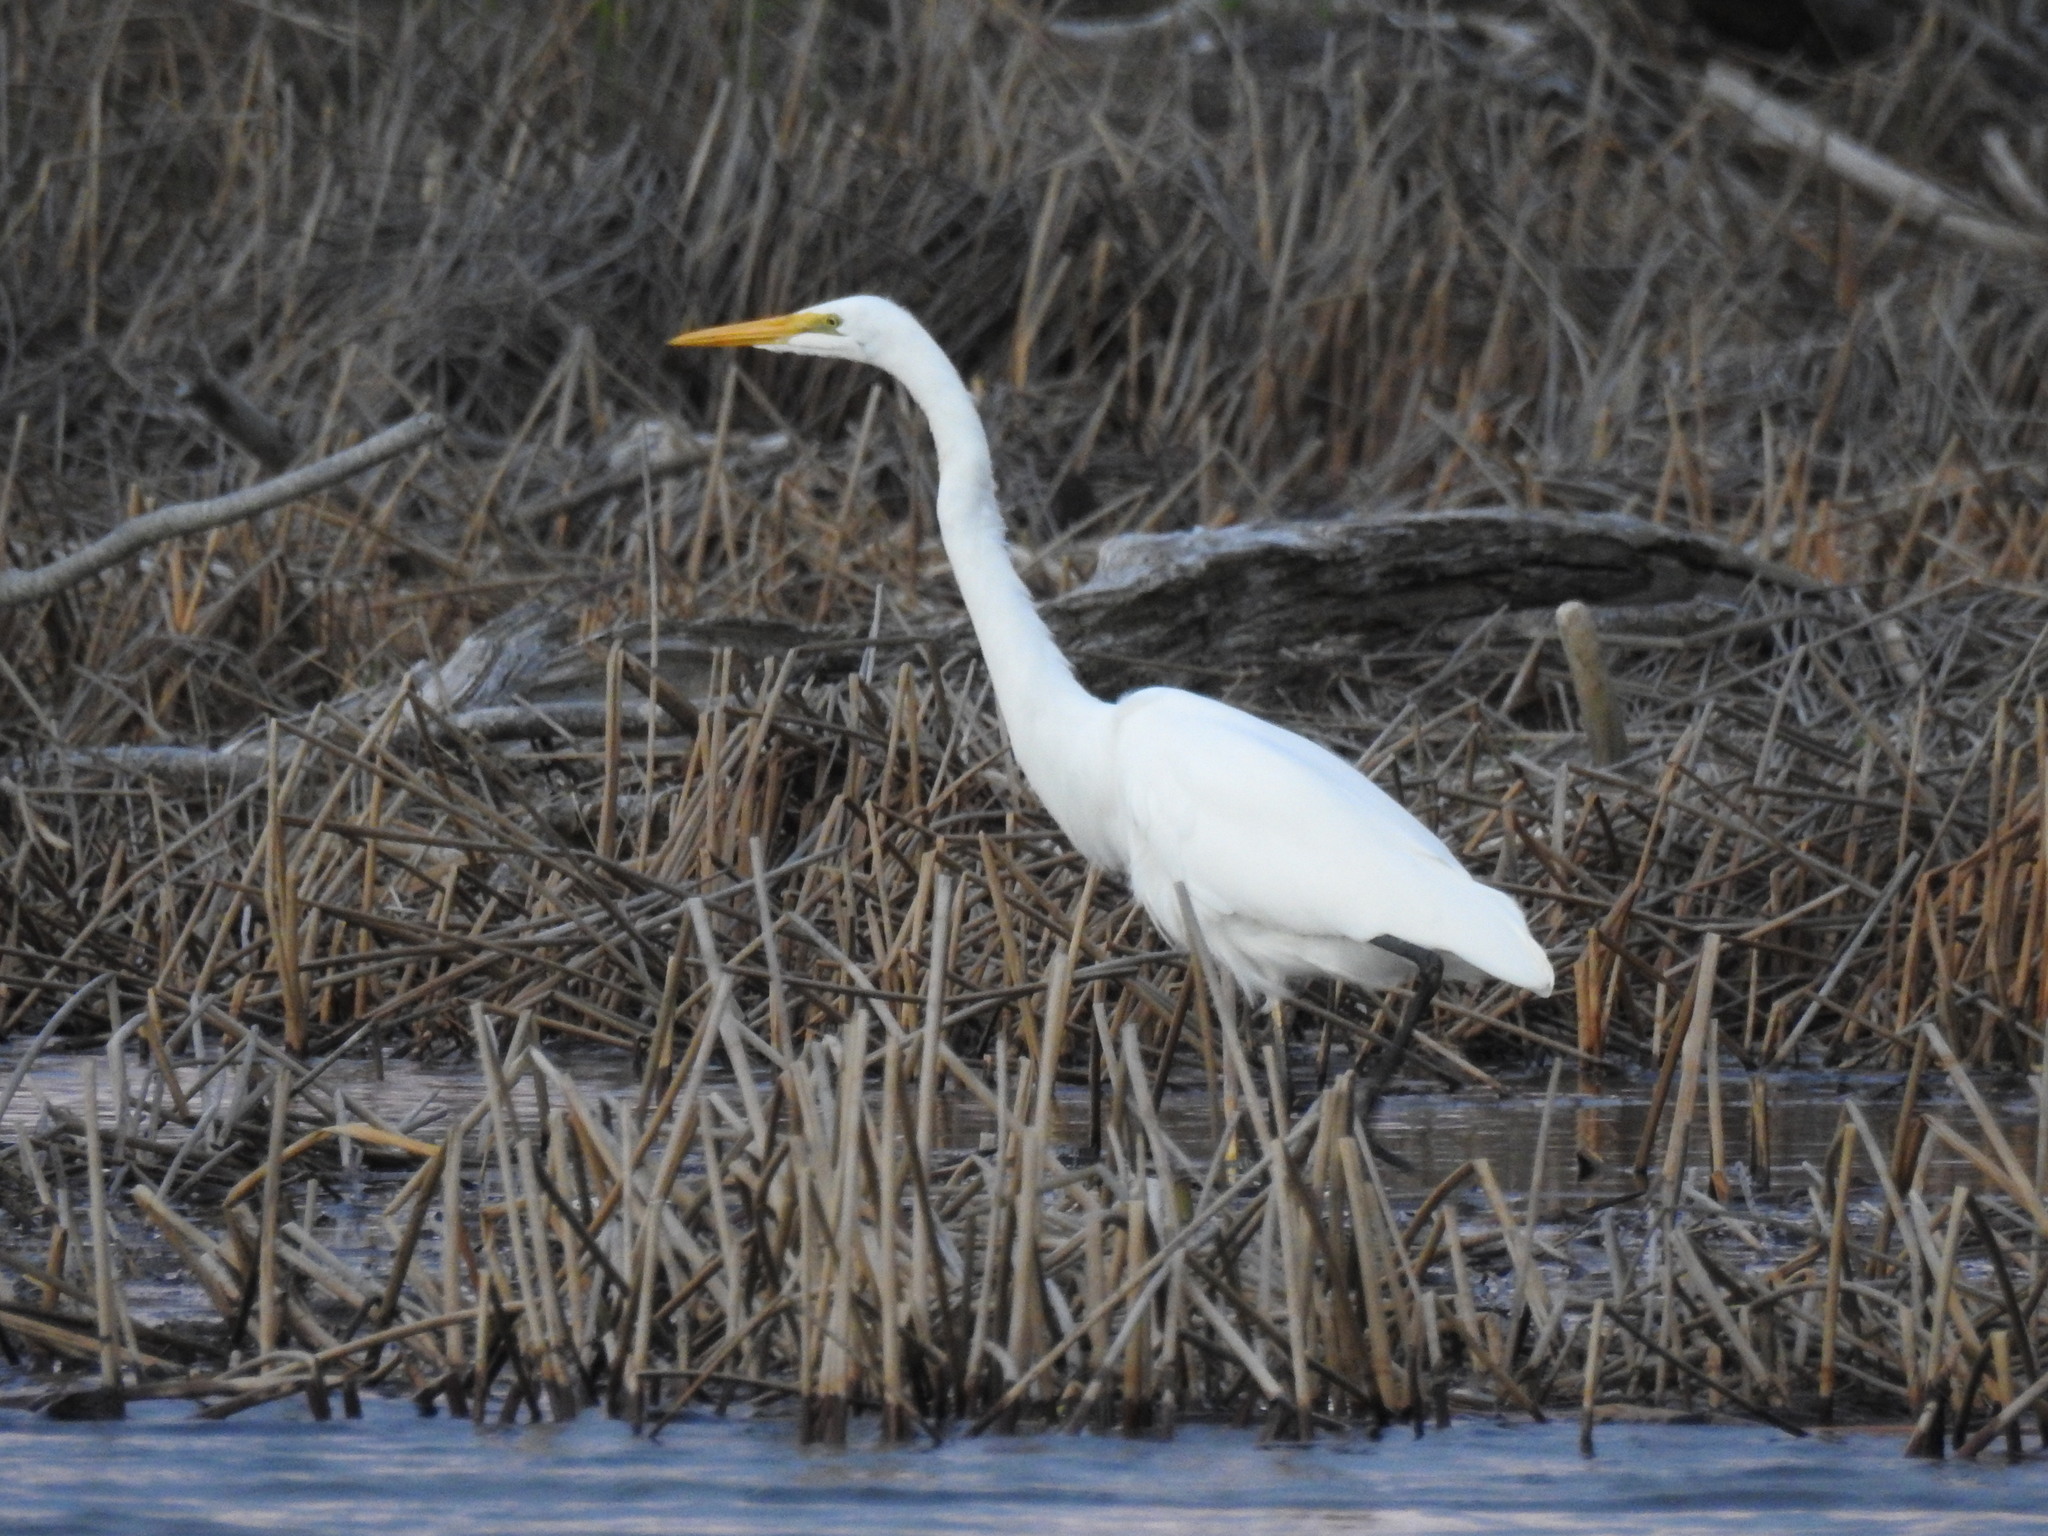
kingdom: Animalia
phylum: Chordata
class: Aves
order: Pelecaniformes
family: Ardeidae
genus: Ardea
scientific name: Ardea modesta
